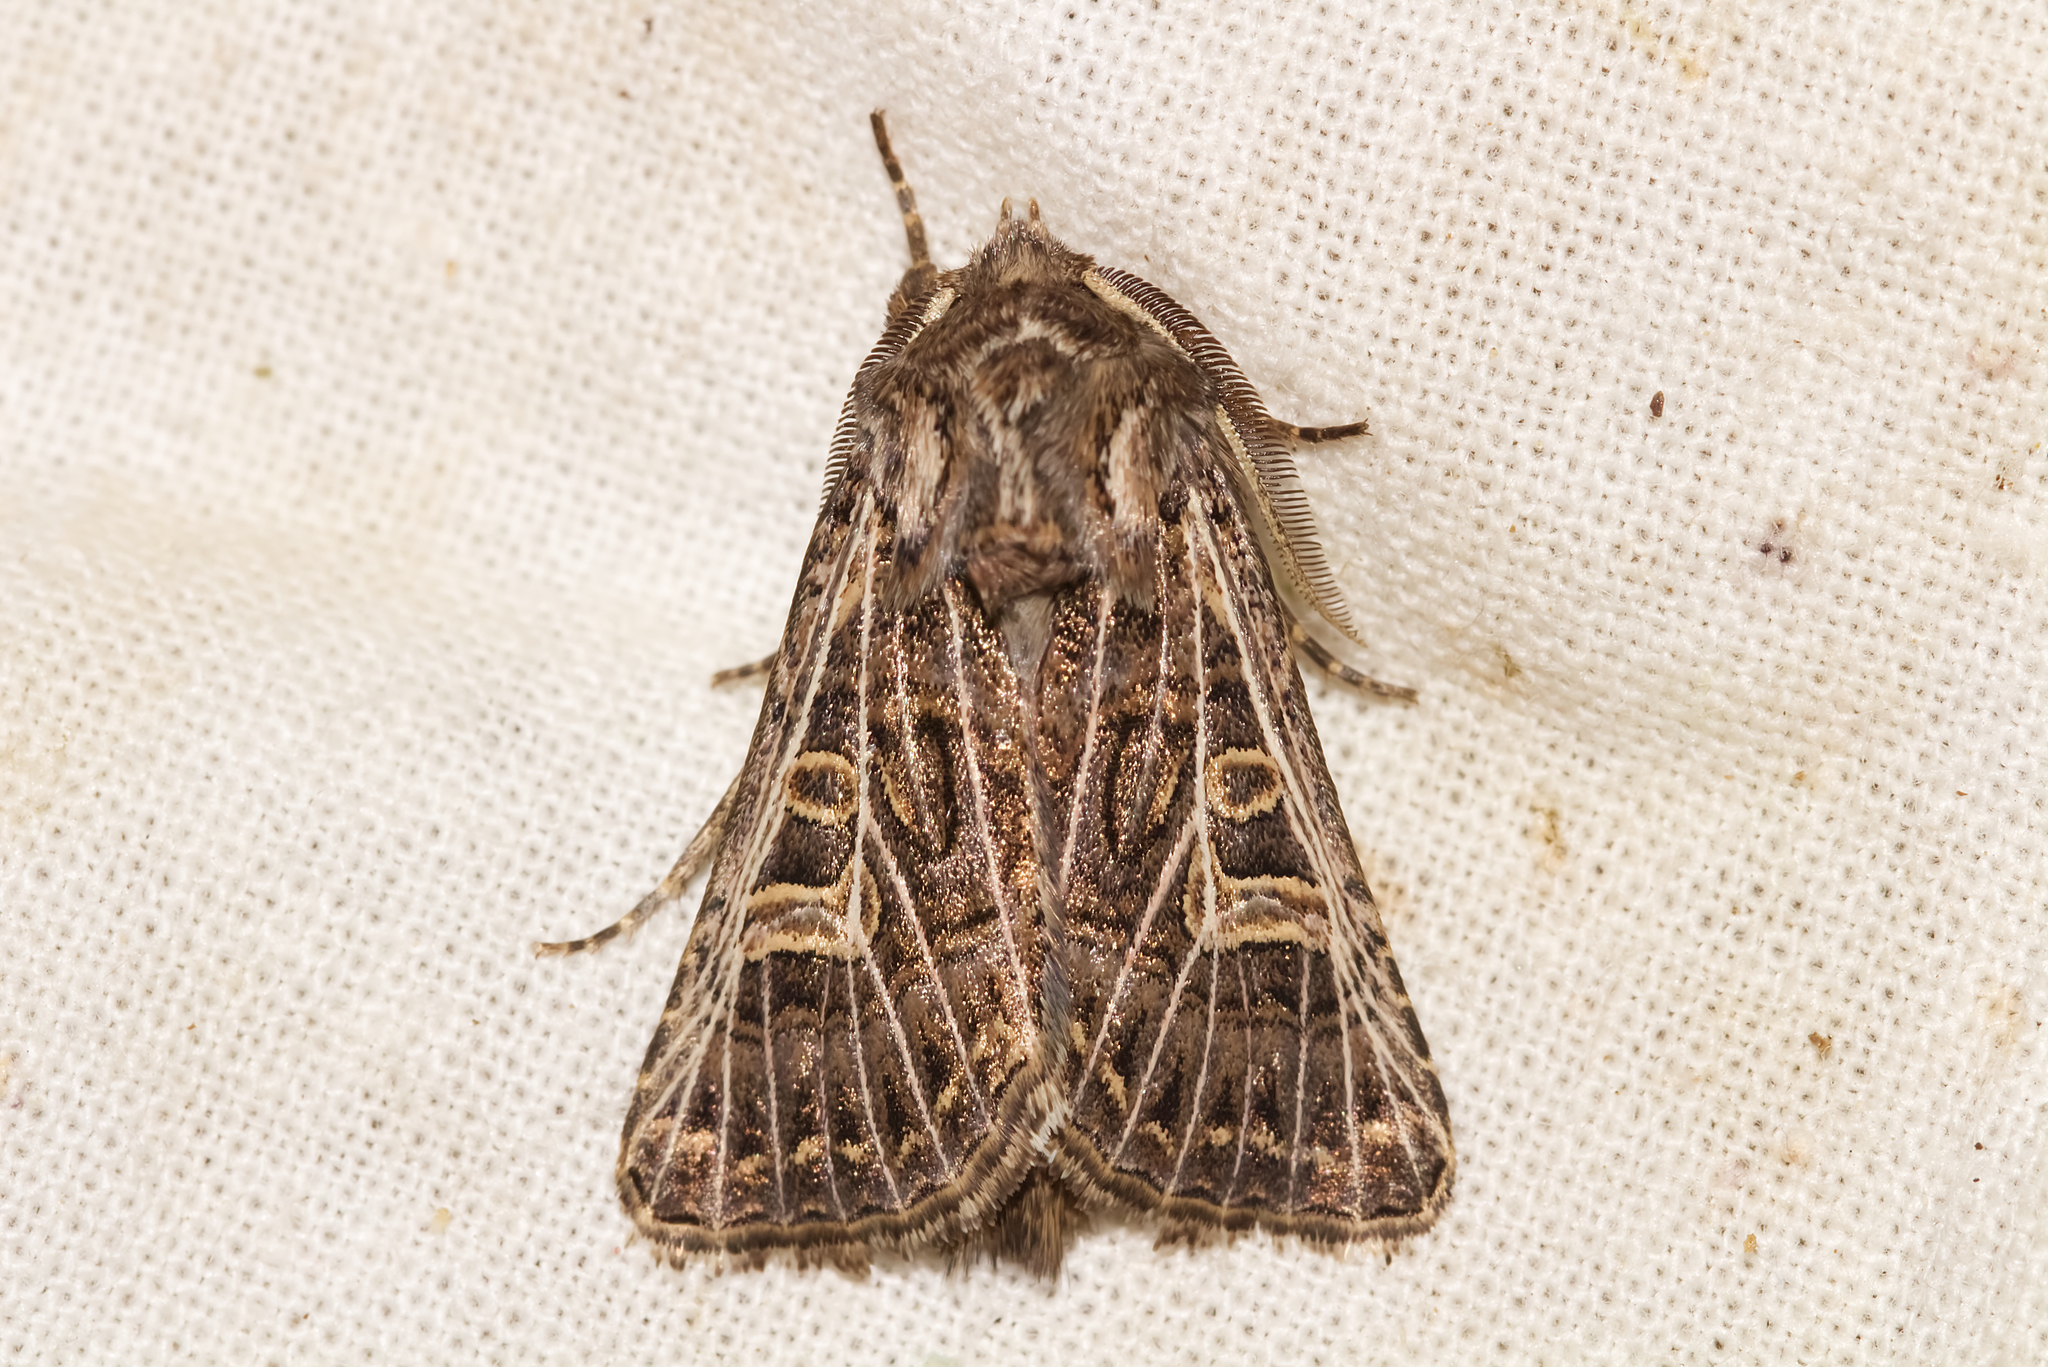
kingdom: Animalia
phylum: Arthropoda
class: Insecta
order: Lepidoptera
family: Noctuidae
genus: Tholera
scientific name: Tholera decimalis
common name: Feathered gothic
